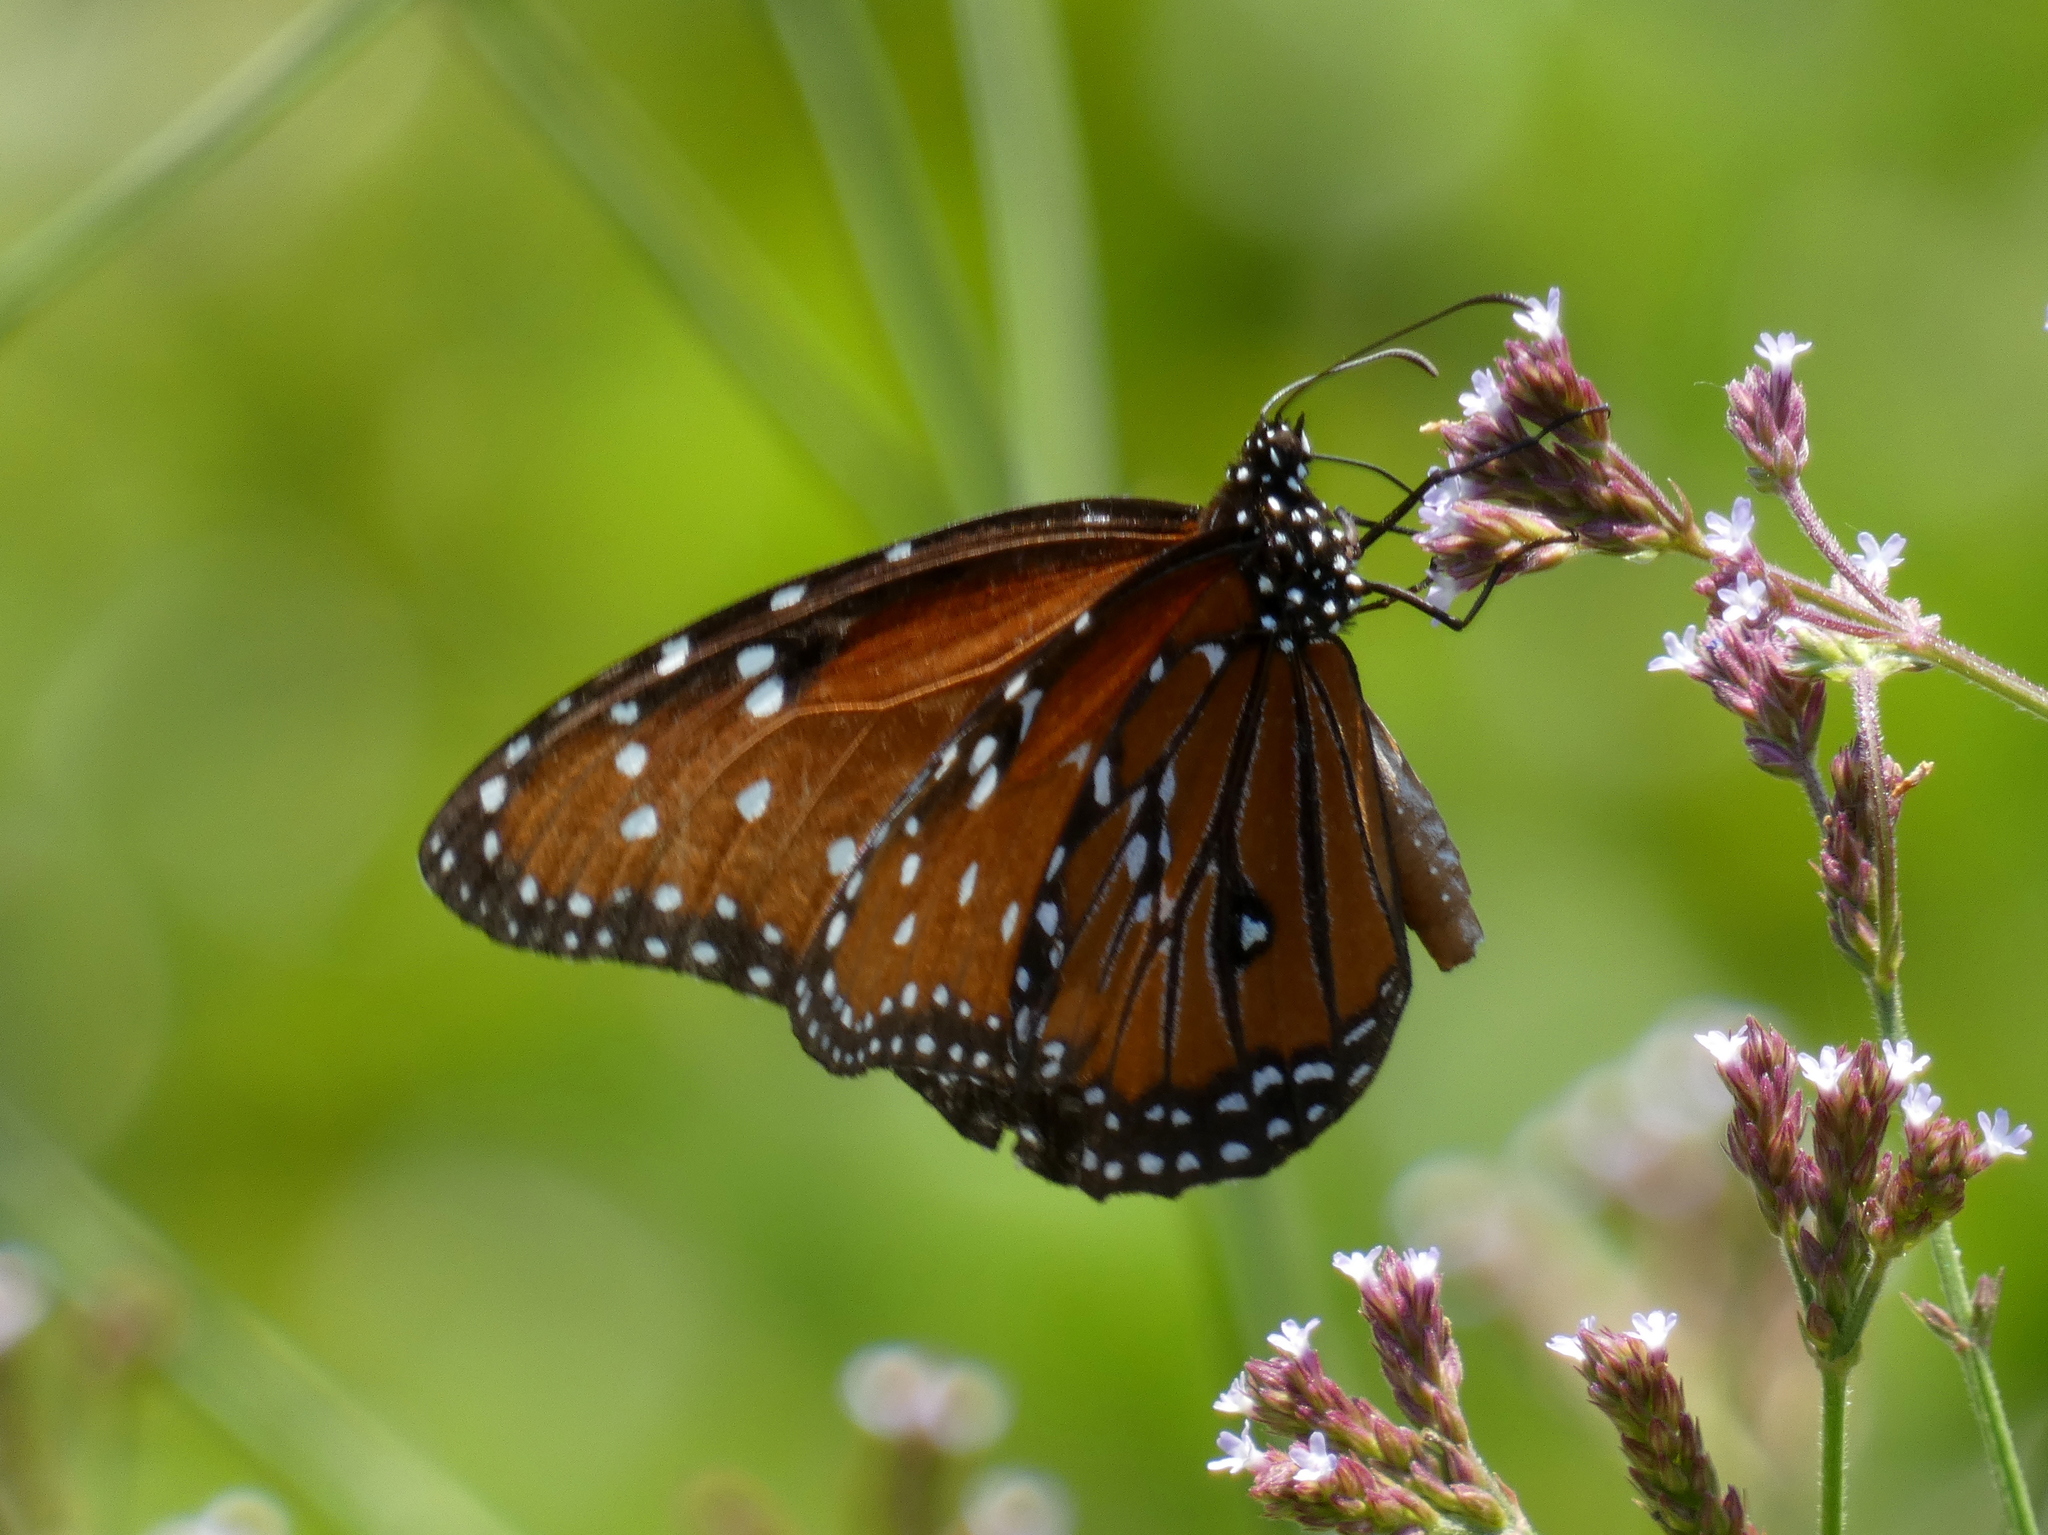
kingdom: Animalia
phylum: Arthropoda
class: Insecta
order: Lepidoptera
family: Nymphalidae
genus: Danaus
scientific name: Danaus gilippus
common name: Queen
